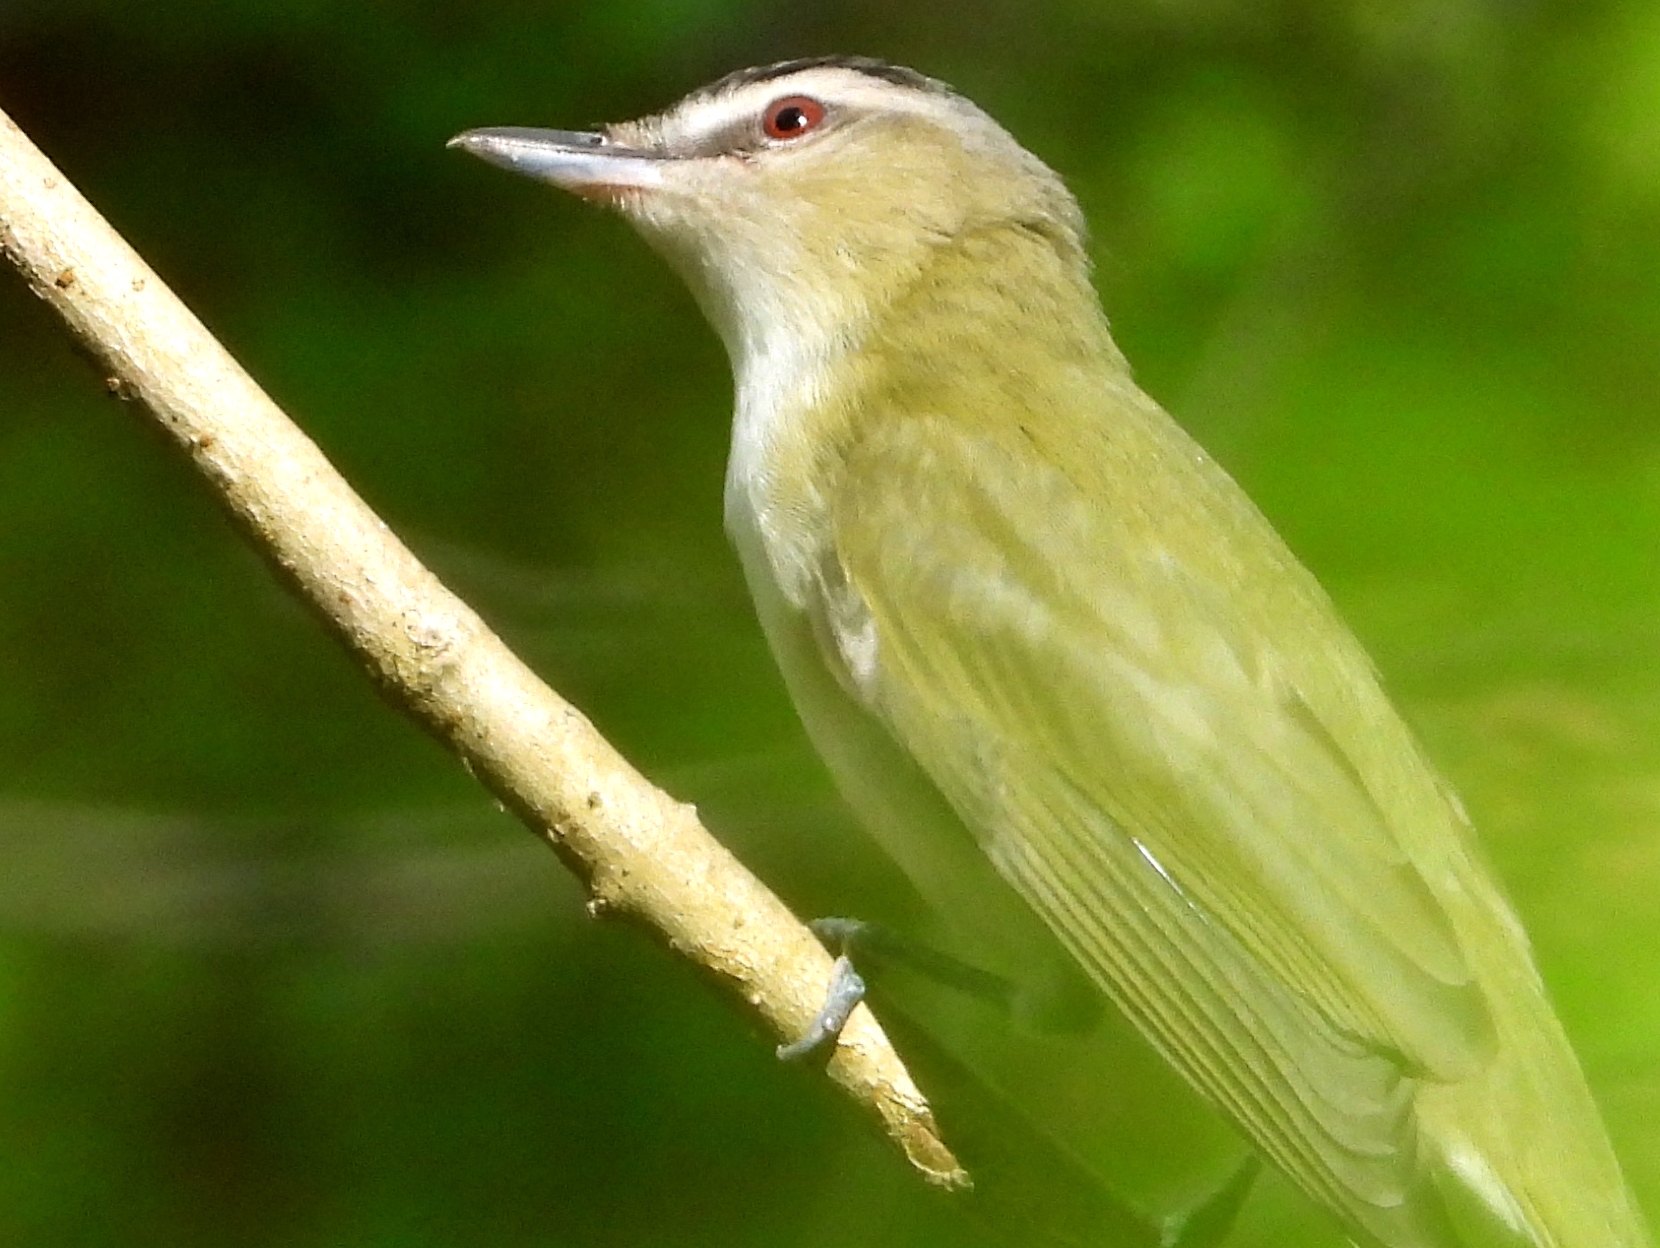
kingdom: Animalia
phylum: Chordata
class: Aves
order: Passeriformes
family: Vireonidae
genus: Vireo
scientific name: Vireo olivaceus
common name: Red-eyed vireo
